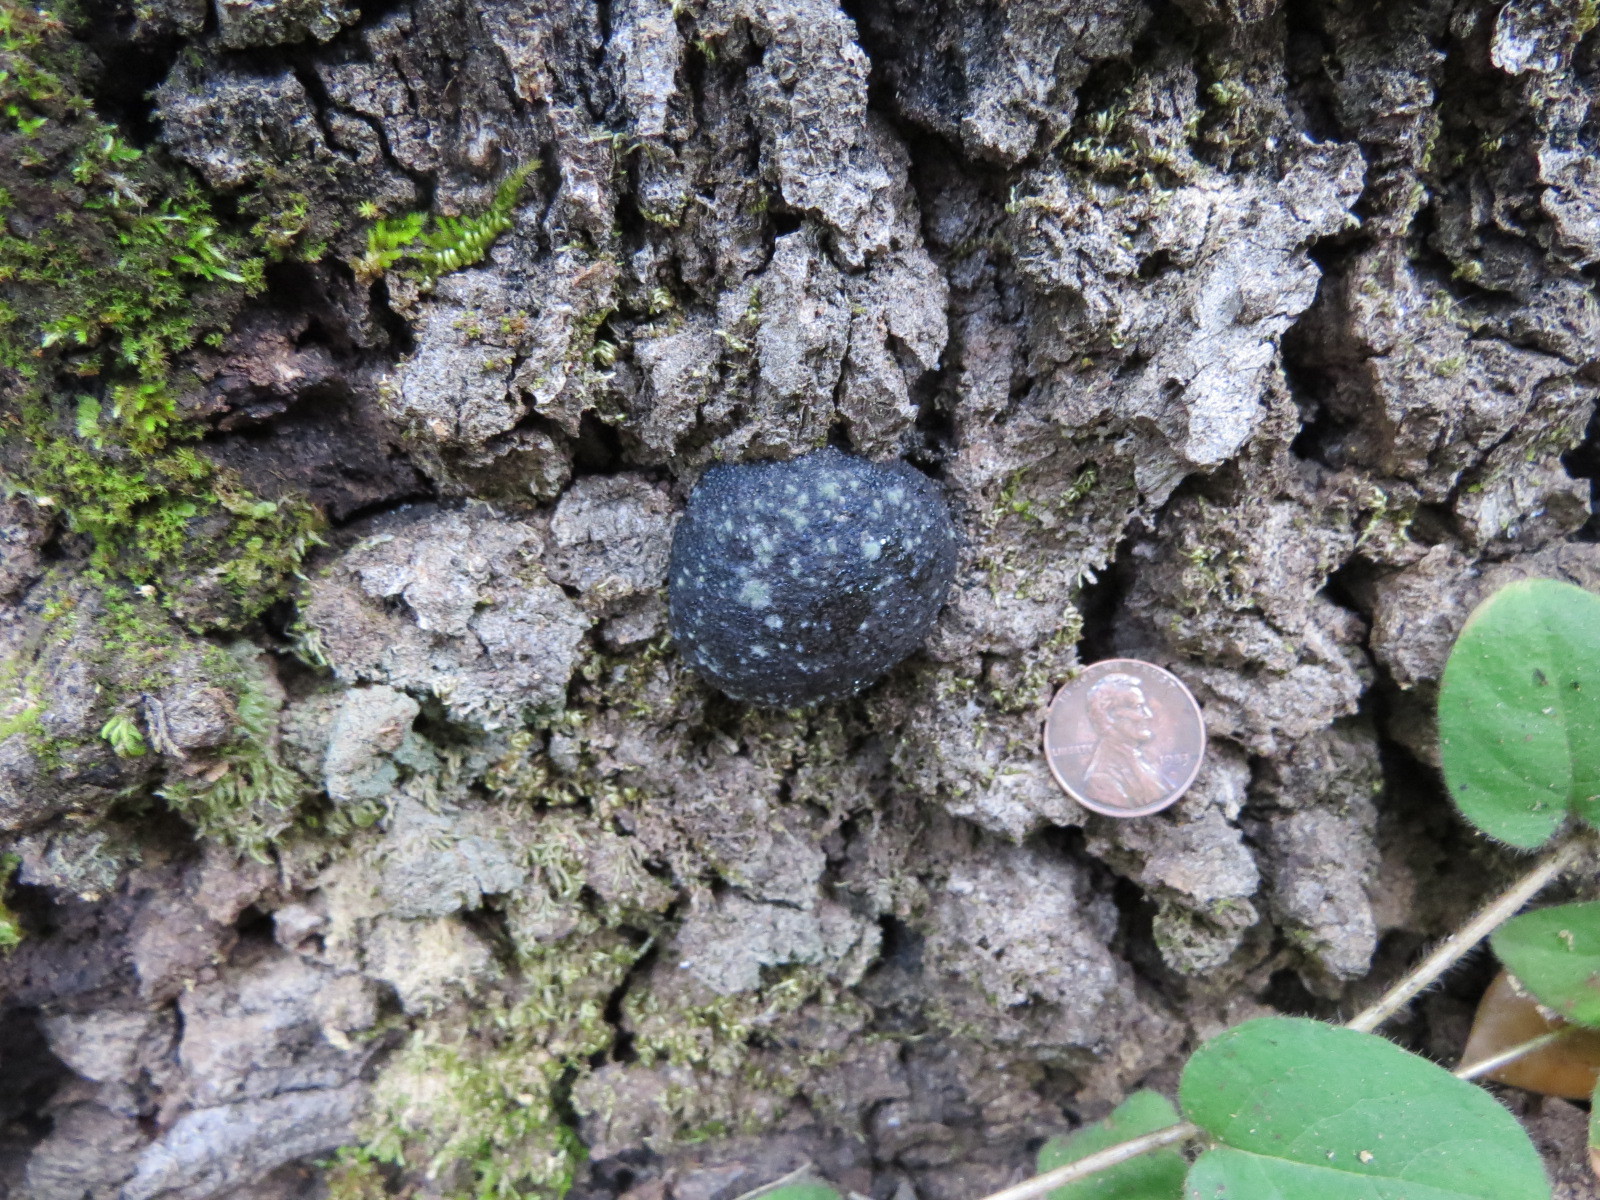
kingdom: Fungi
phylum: Ascomycota
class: Sordariomycetes
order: Xylariales
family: Hypoxylaceae
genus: Annulohypoxylon
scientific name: Annulohypoxylon thouarsianum
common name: Cramp balls
